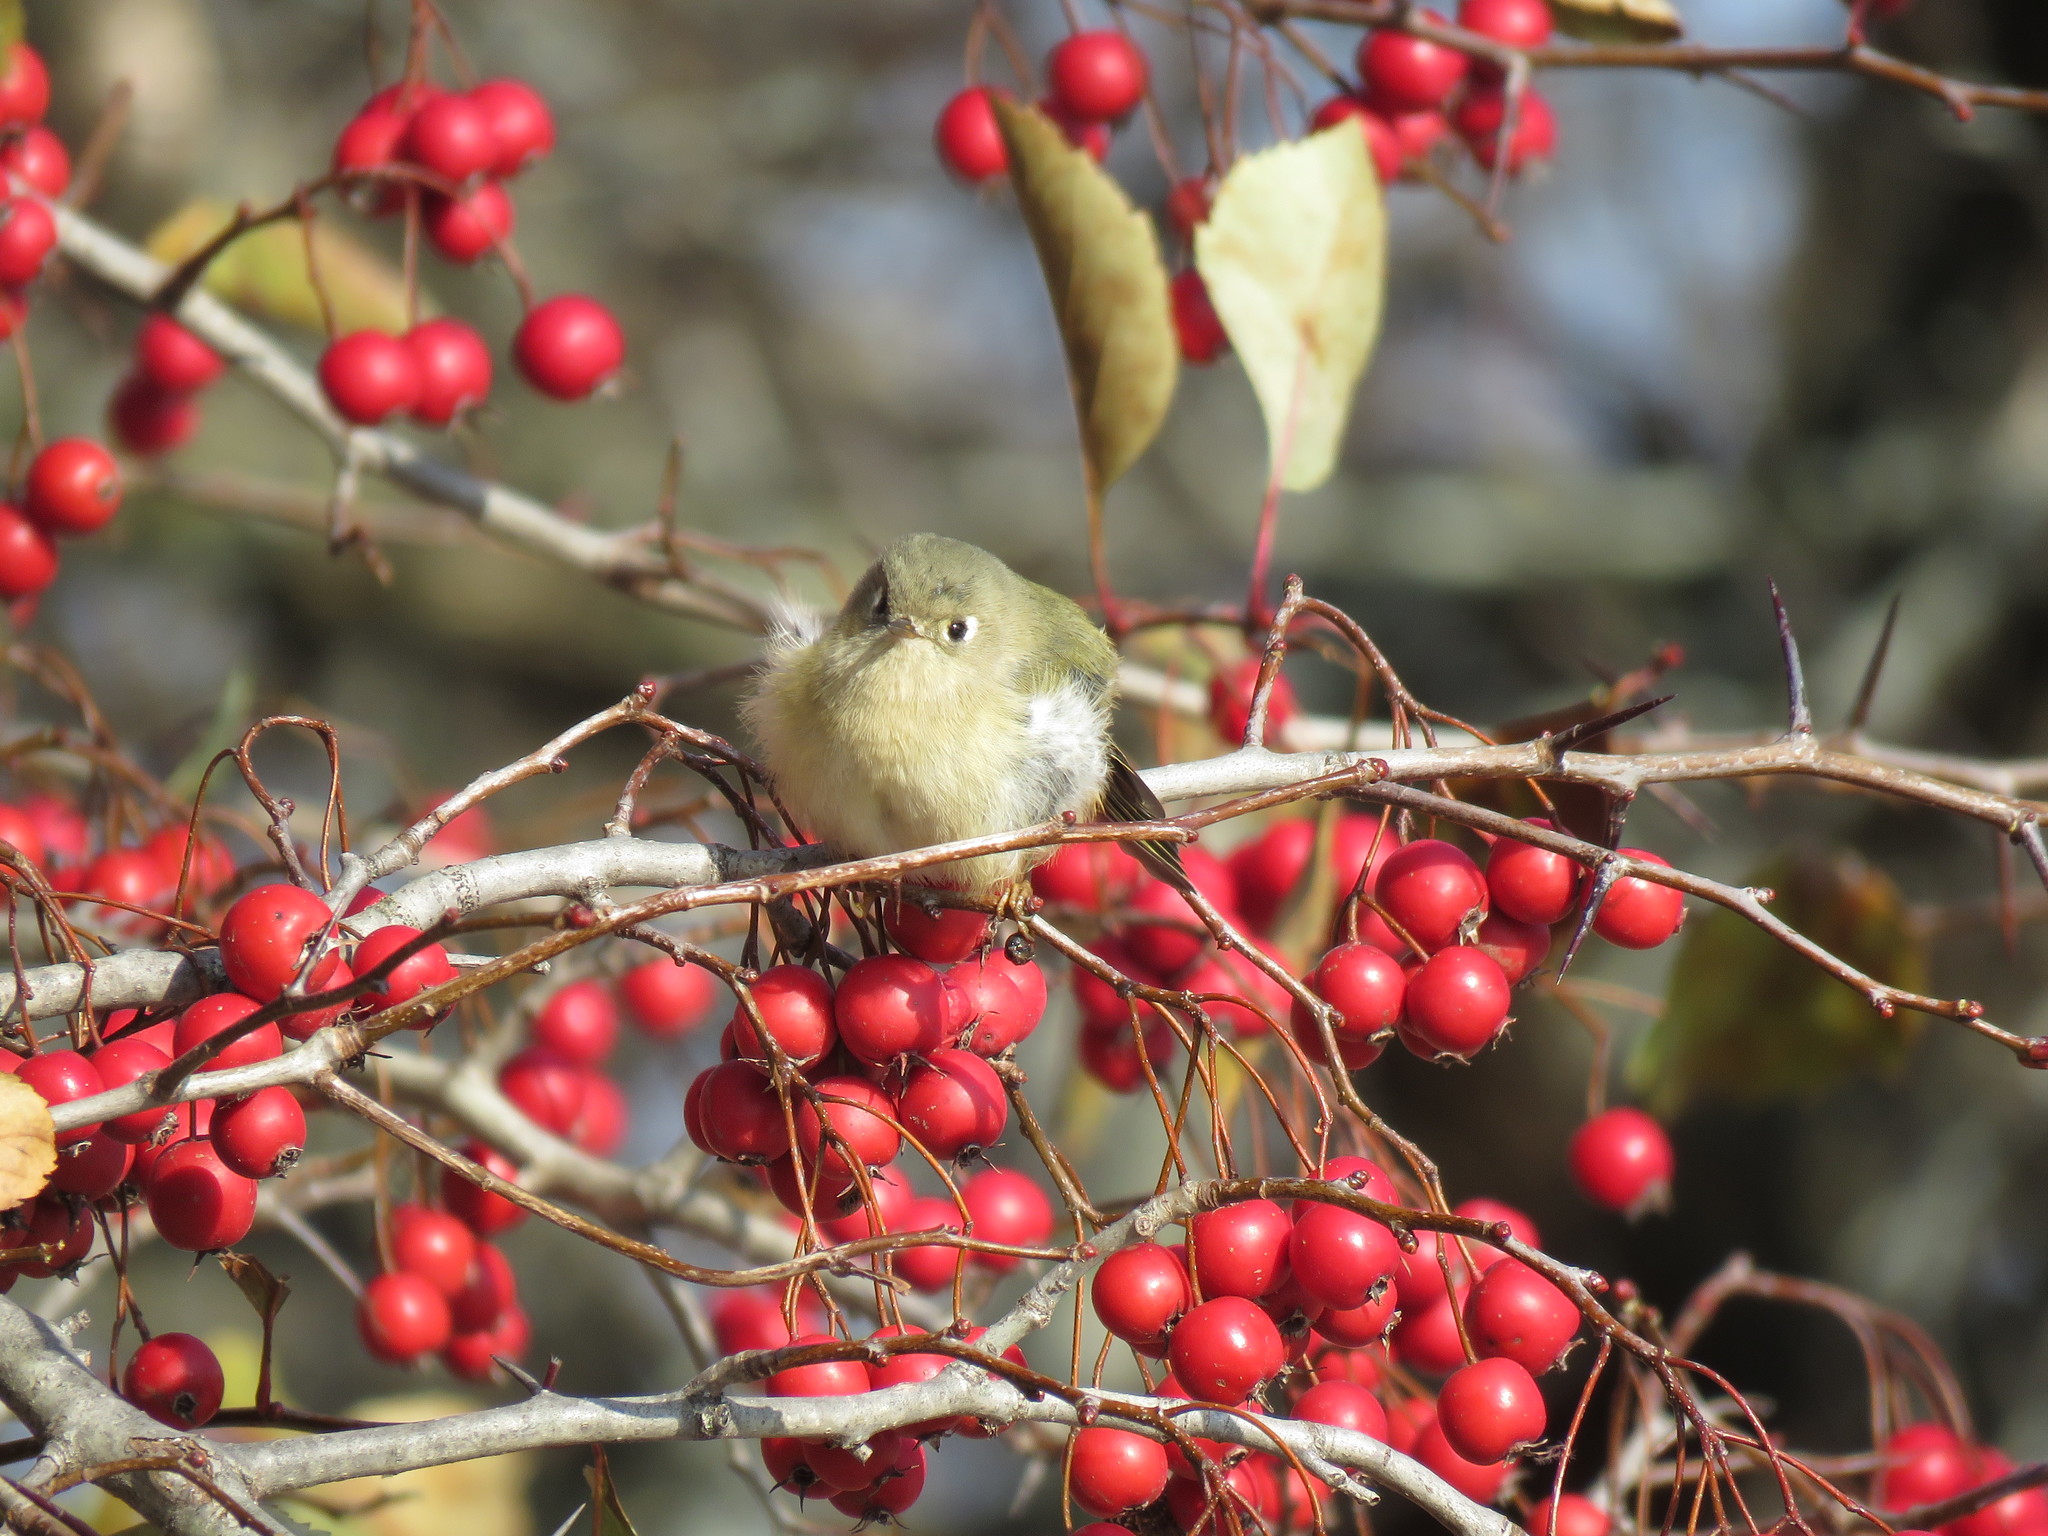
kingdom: Animalia
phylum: Chordata
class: Aves
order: Passeriformes
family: Regulidae
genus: Regulus
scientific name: Regulus calendula
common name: Ruby-crowned kinglet
